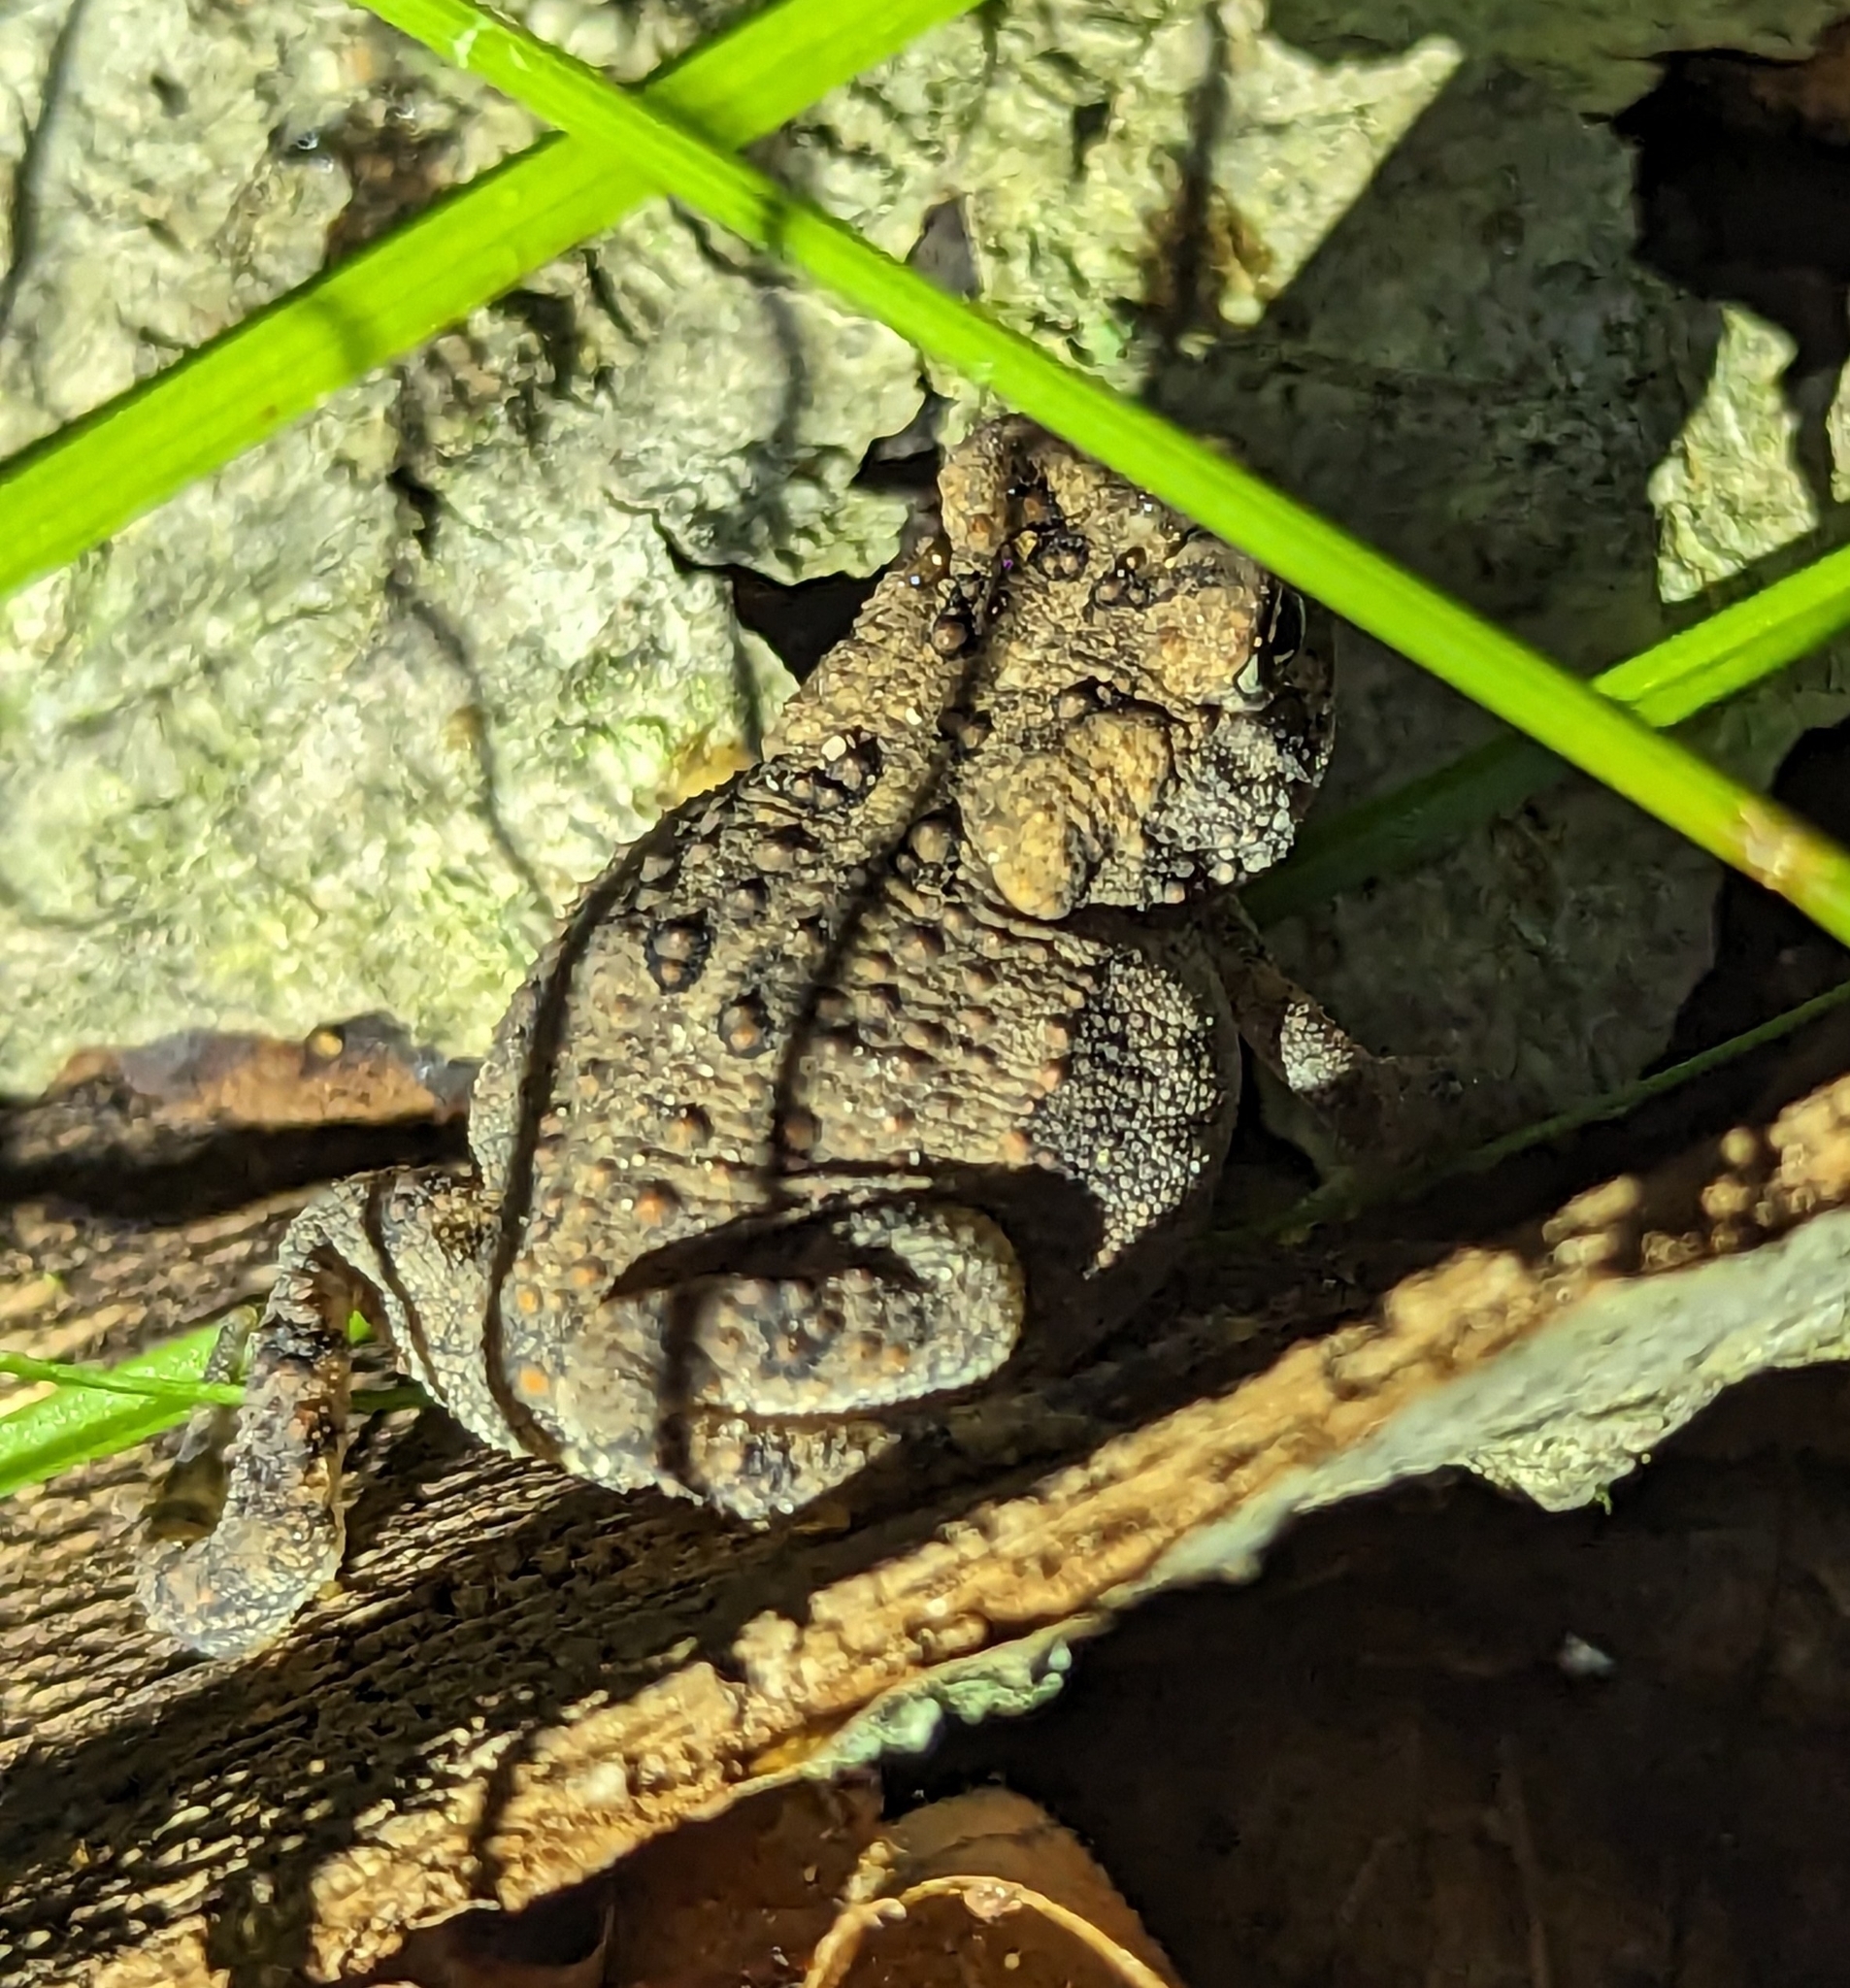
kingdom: Animalia
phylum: Chordata
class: Amphibia
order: Anura
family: Bufonidae
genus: Anaxyrus
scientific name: Anaxyrus americanus
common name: American toad
